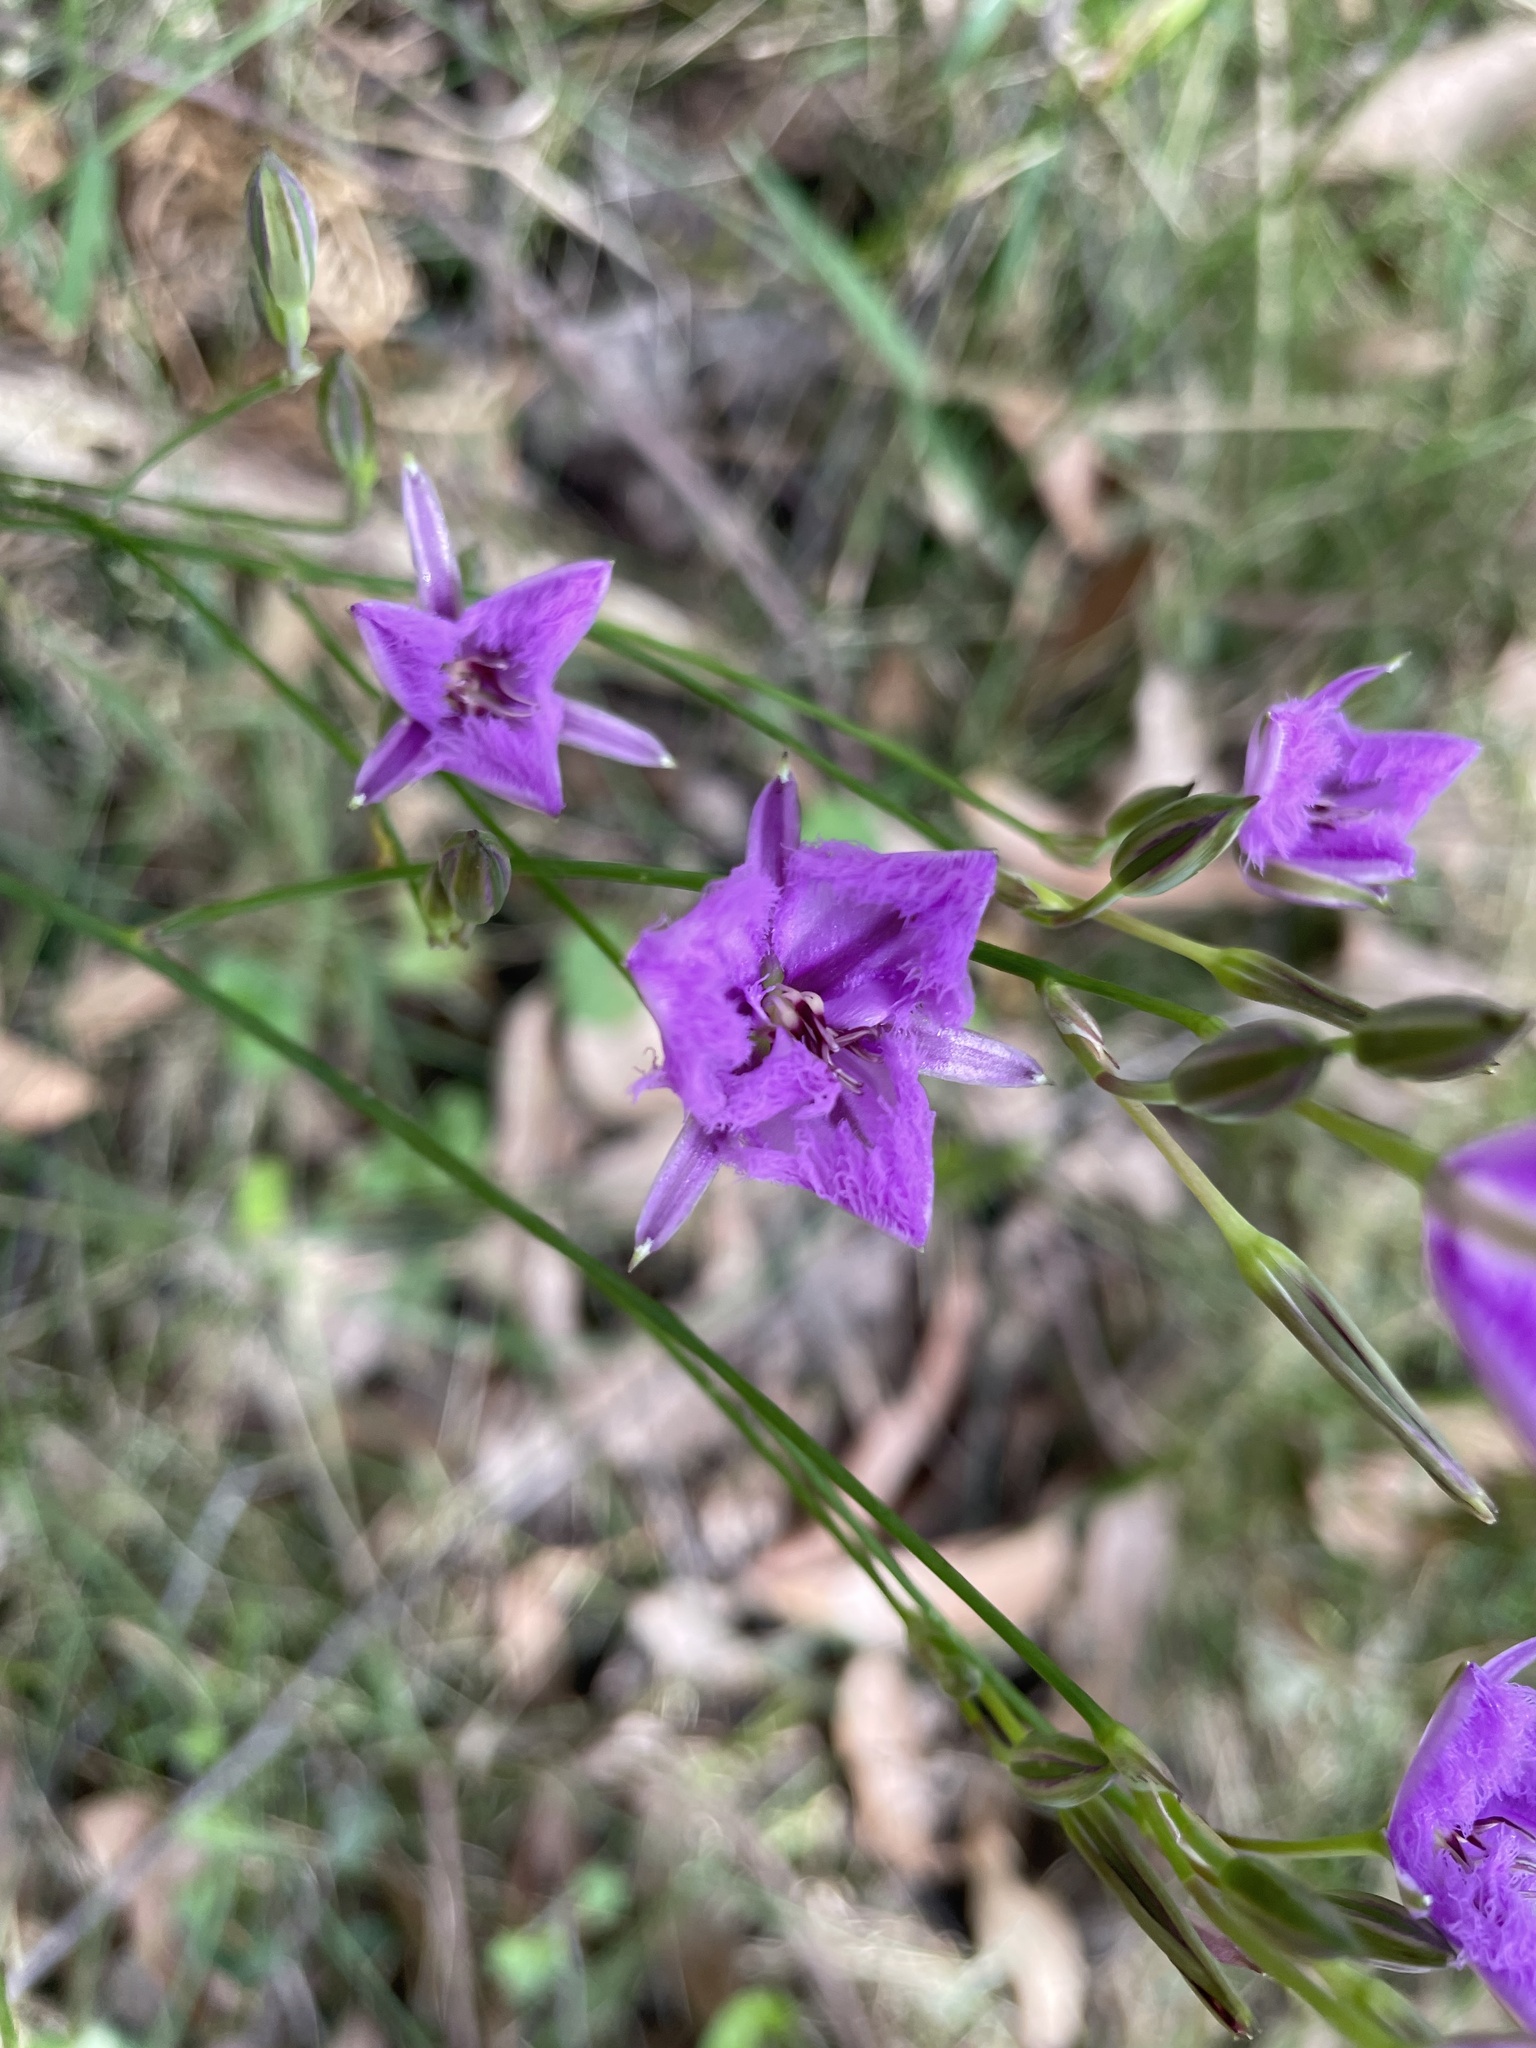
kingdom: Plantae
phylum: Tracheophyta
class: Liliopsida
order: Asparagales
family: Asparagaceae
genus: Thysanotus
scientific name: Thysanotus tuberosus
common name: Common fringed-lily
